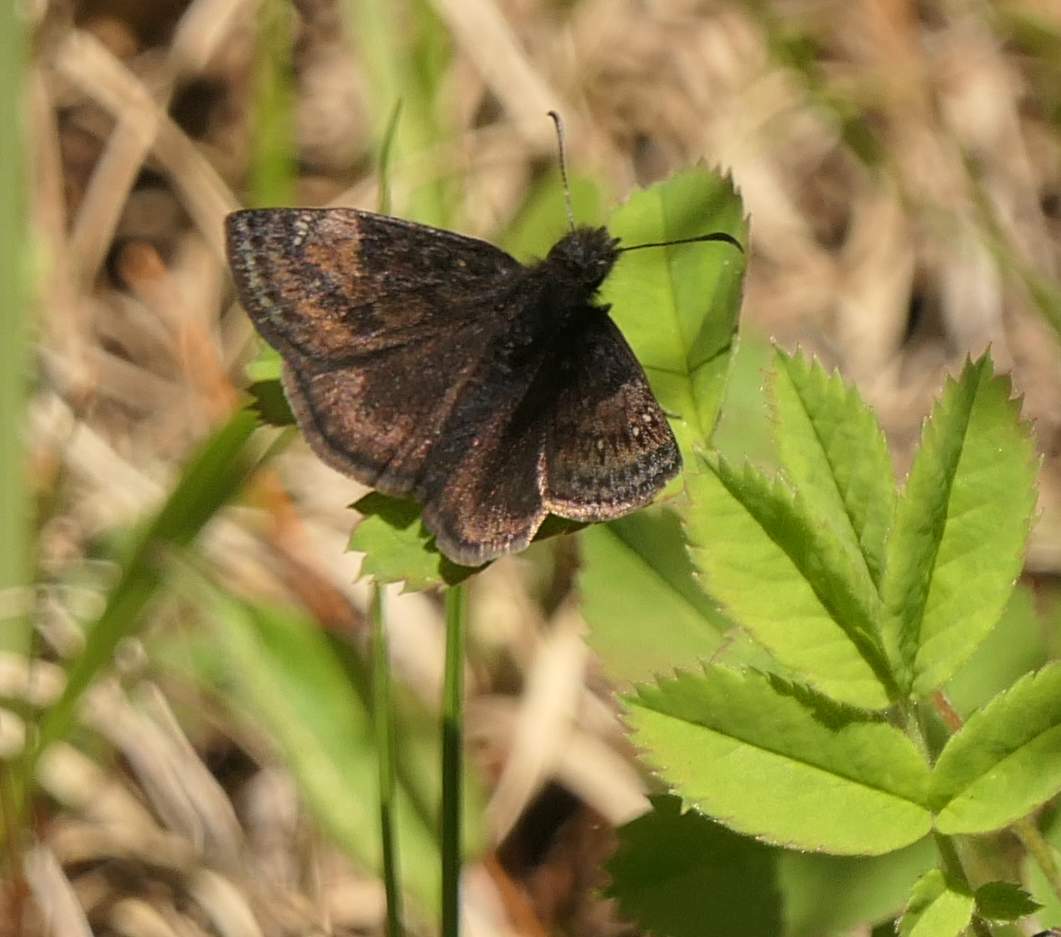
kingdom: Animalia
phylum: Arthropoda
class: Insecta
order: Lepidoptera
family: Hesperiidae
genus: Erynnis
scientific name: Erynnis lucilius
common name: Columbine duskywing
